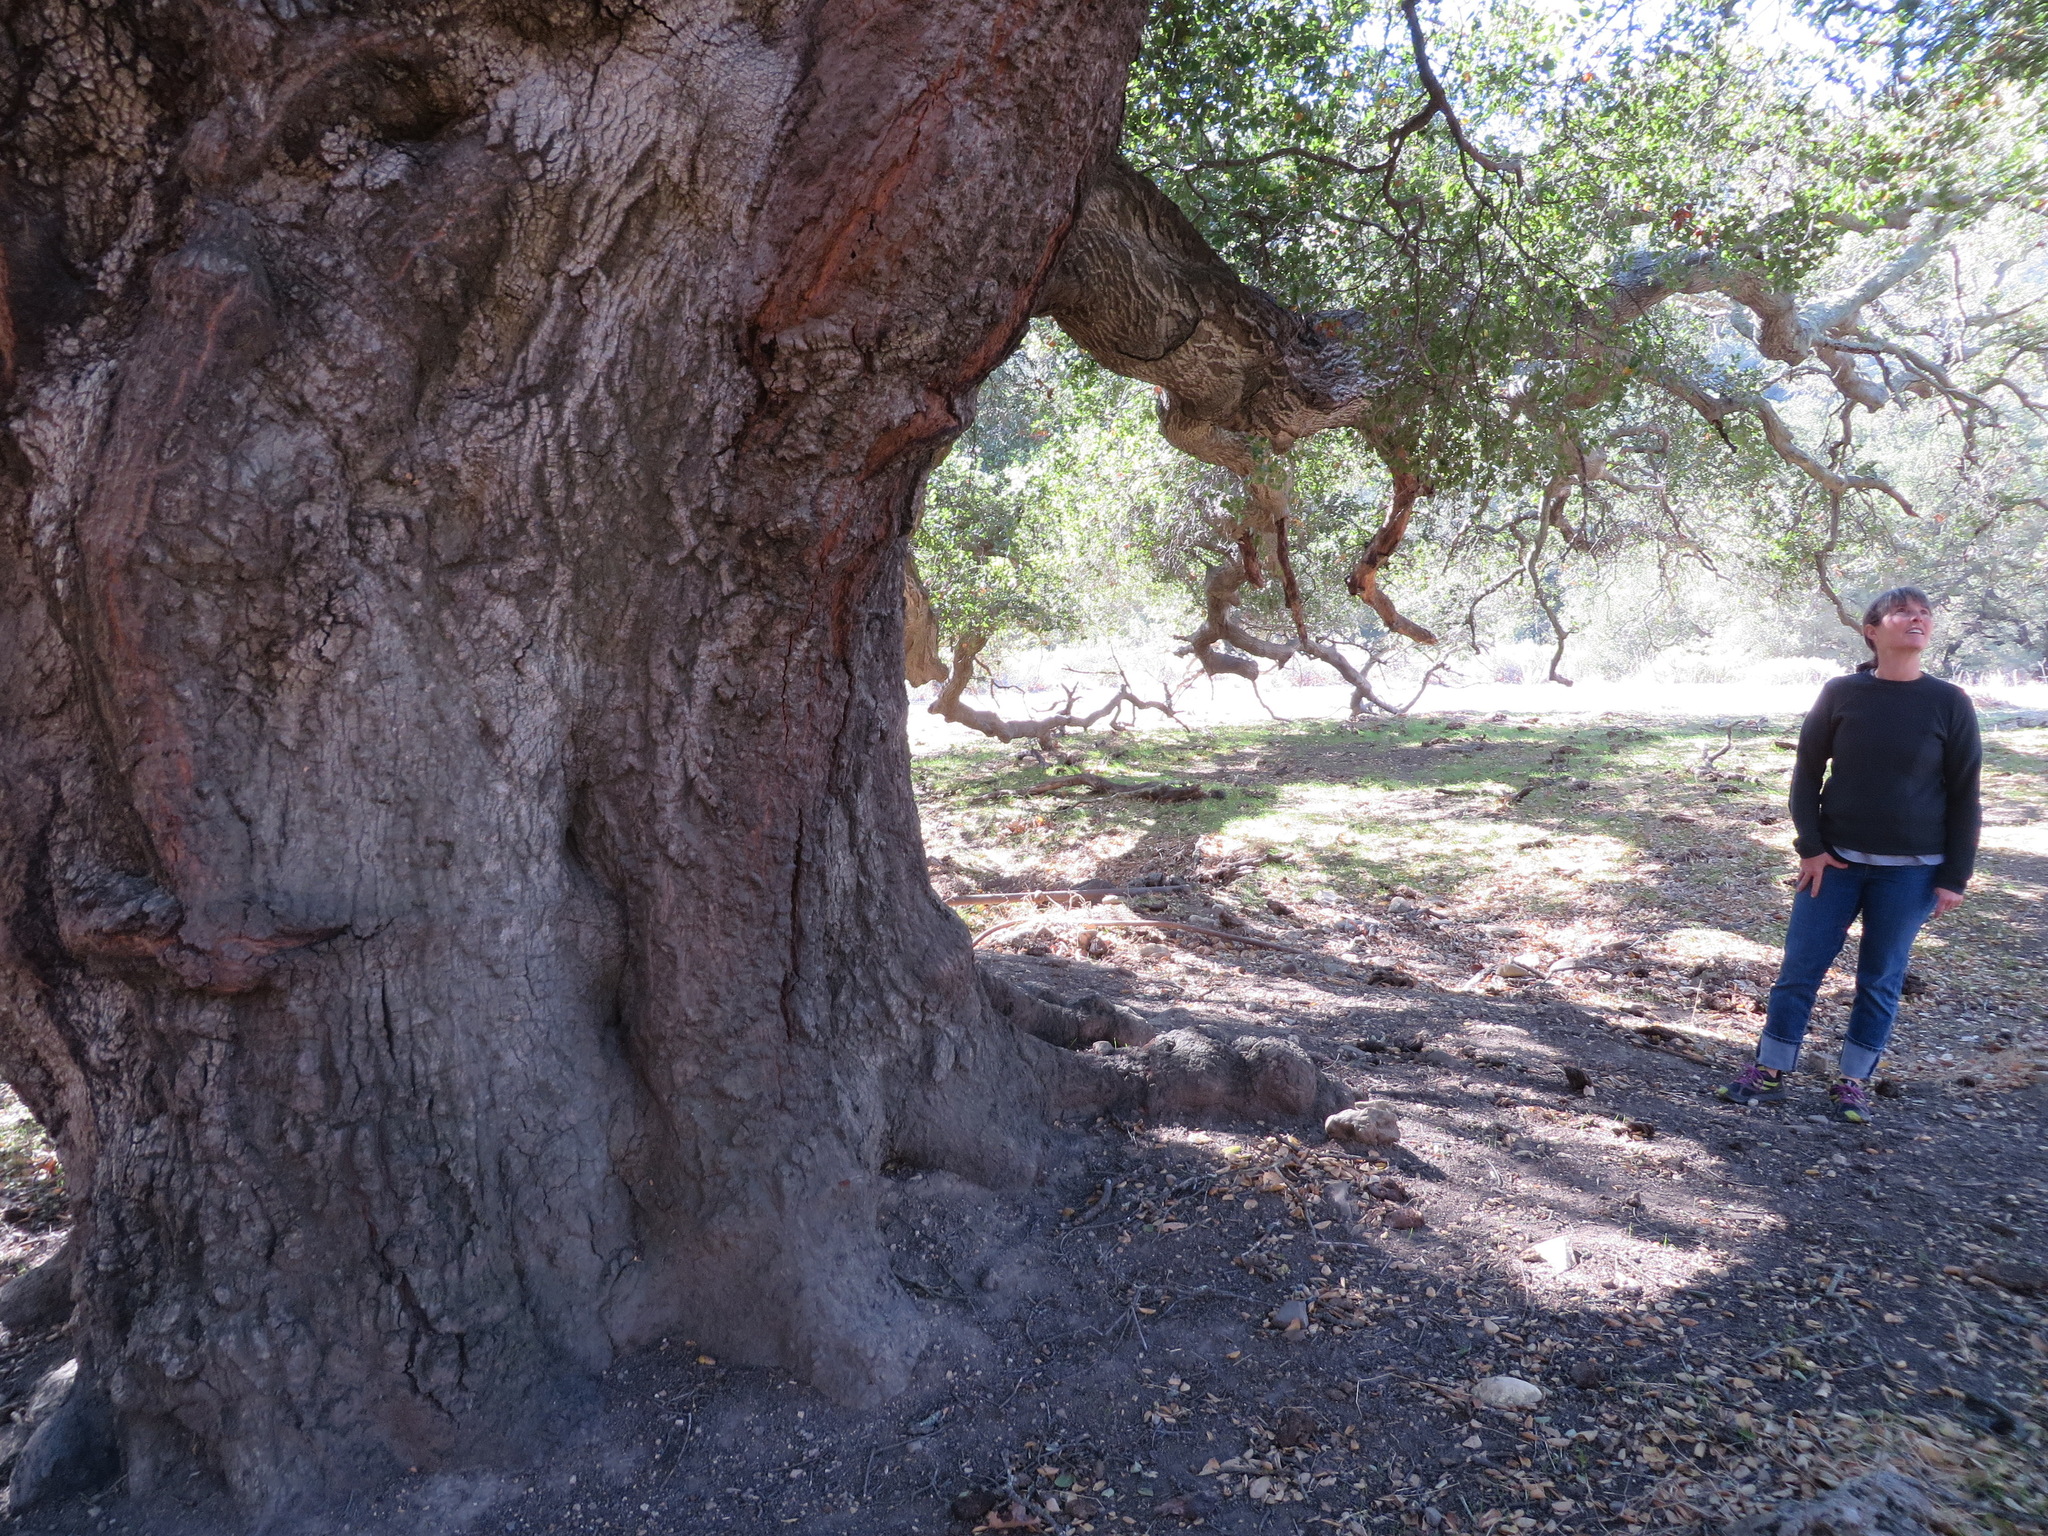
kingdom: Plantae
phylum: Tracheophyta
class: Magnoliopsida
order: Fagales
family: Fagaceae
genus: Quercus
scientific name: Quercus agrifolia
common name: California live oak
